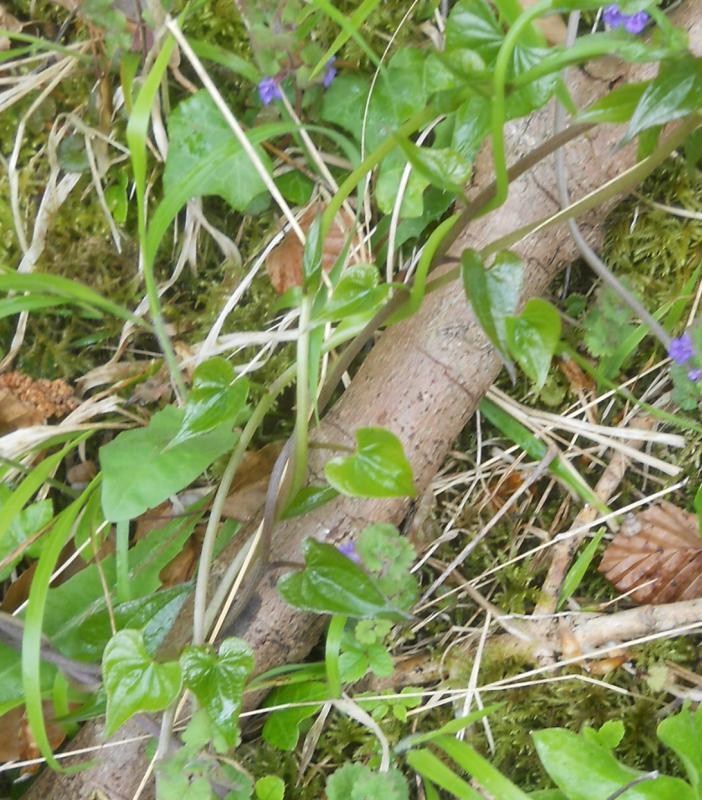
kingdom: Plantae
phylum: Tracheophyta
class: Liliopsida
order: Dioscoreales
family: Dioscoreaceae
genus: Dioscorea
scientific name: Dioscorea communis
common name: Black-bindweed
